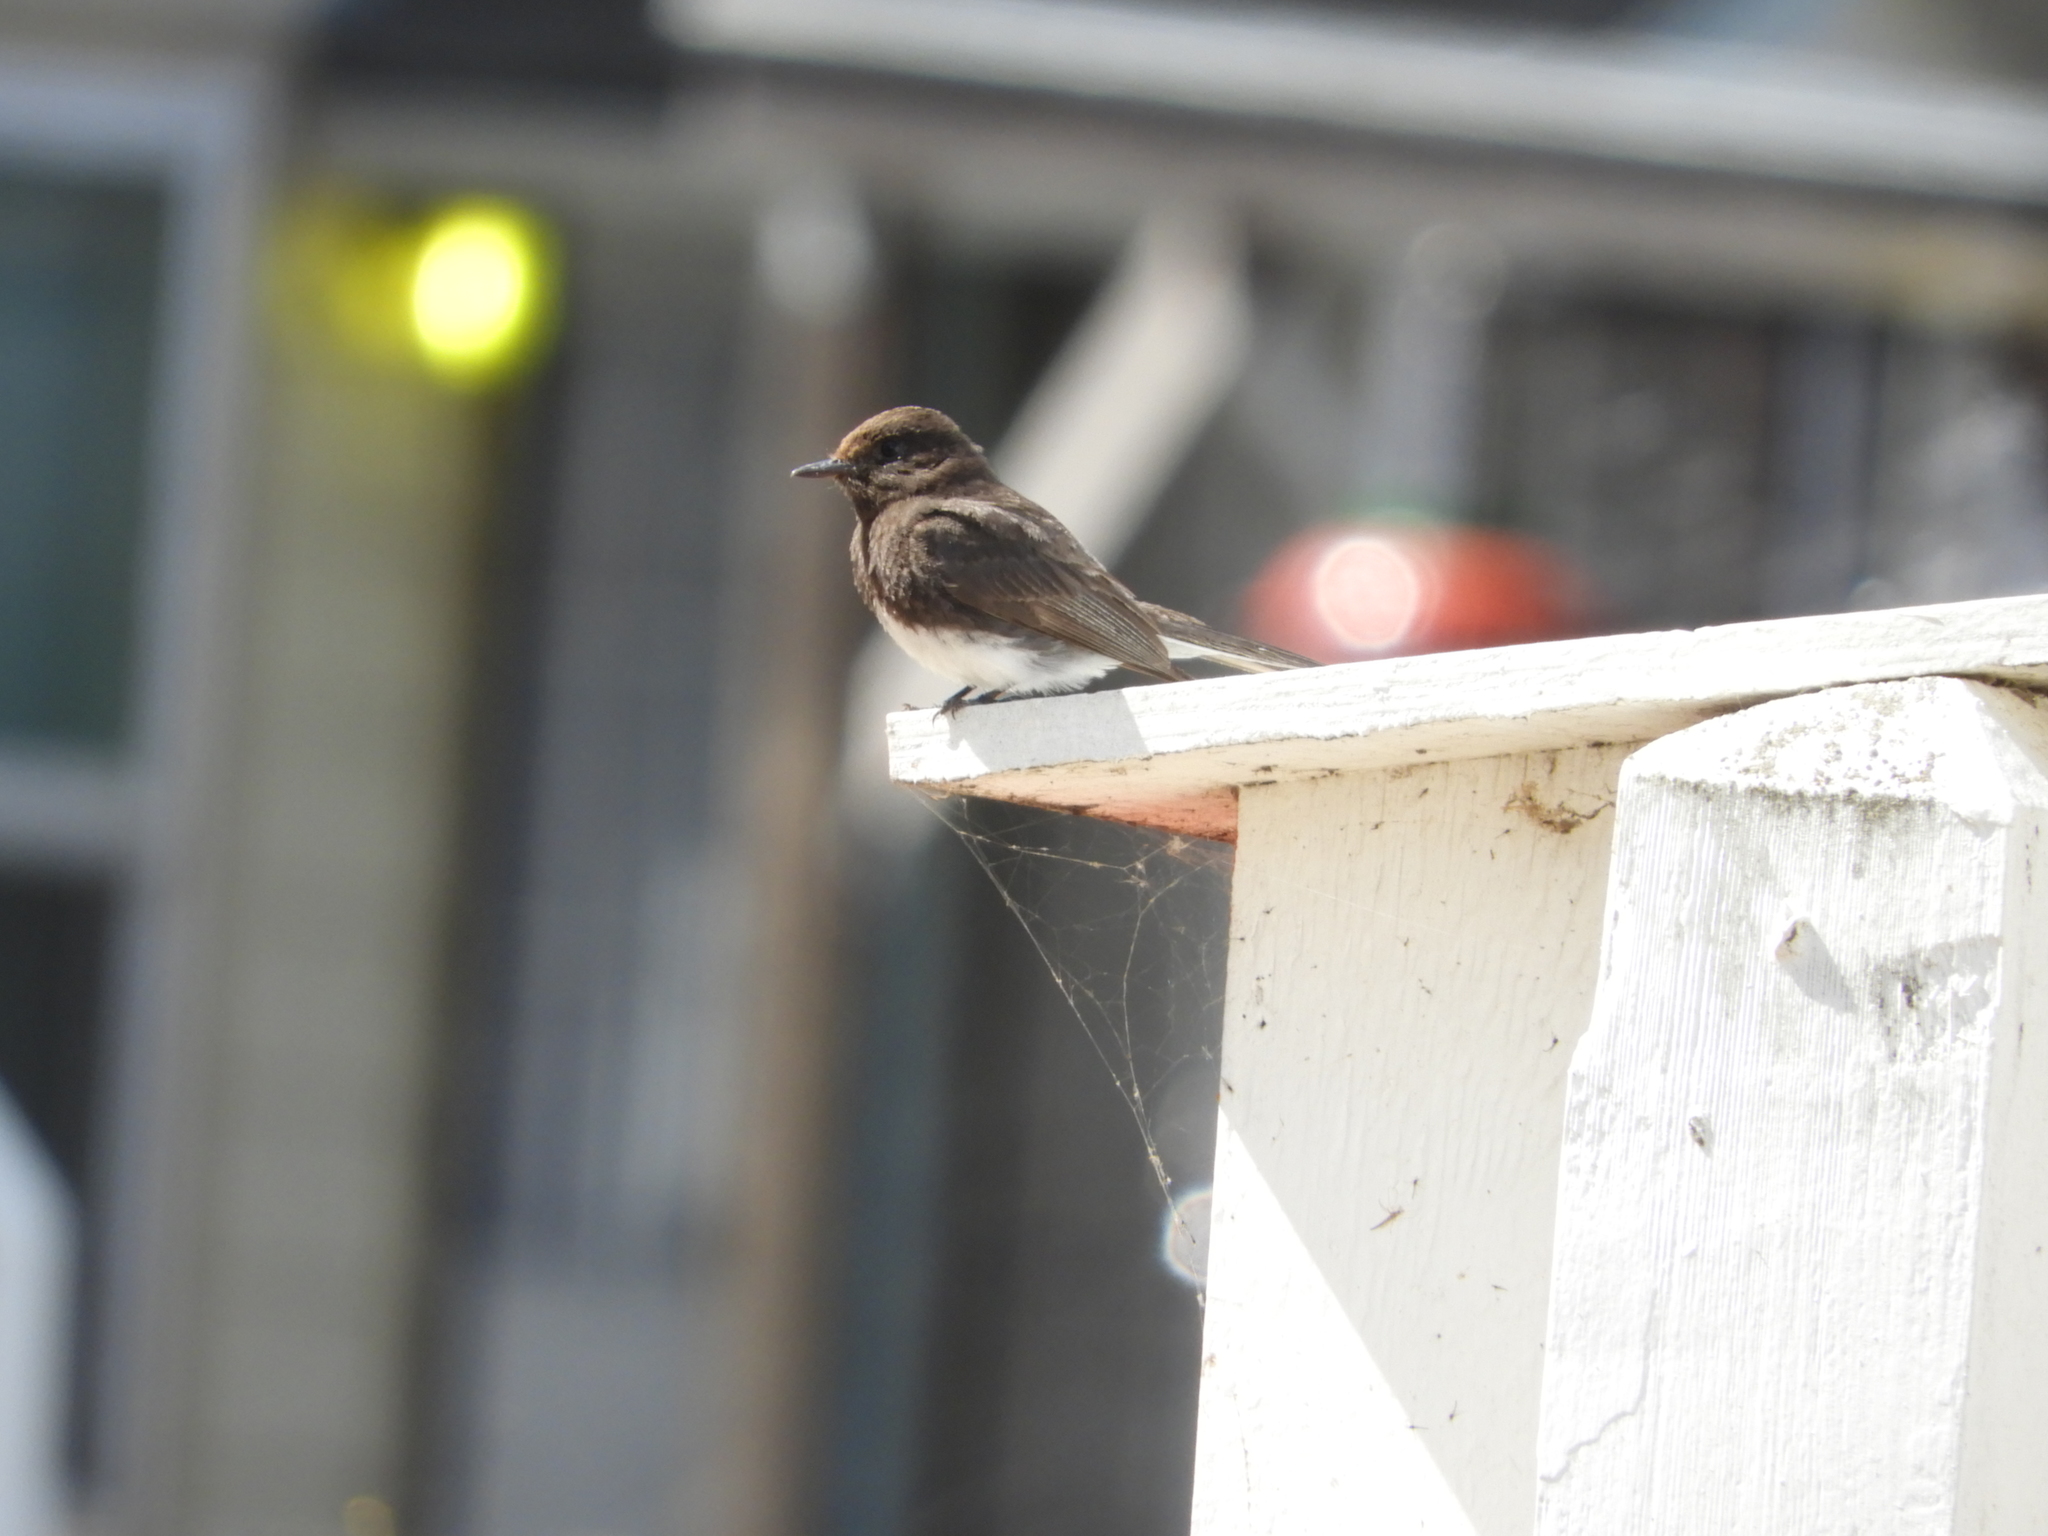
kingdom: Animalia
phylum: Chordata
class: Aves
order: Passeriformes
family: Tyrannidae
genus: Sayornis
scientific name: Sayornis nigricans
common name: Black phoebe
